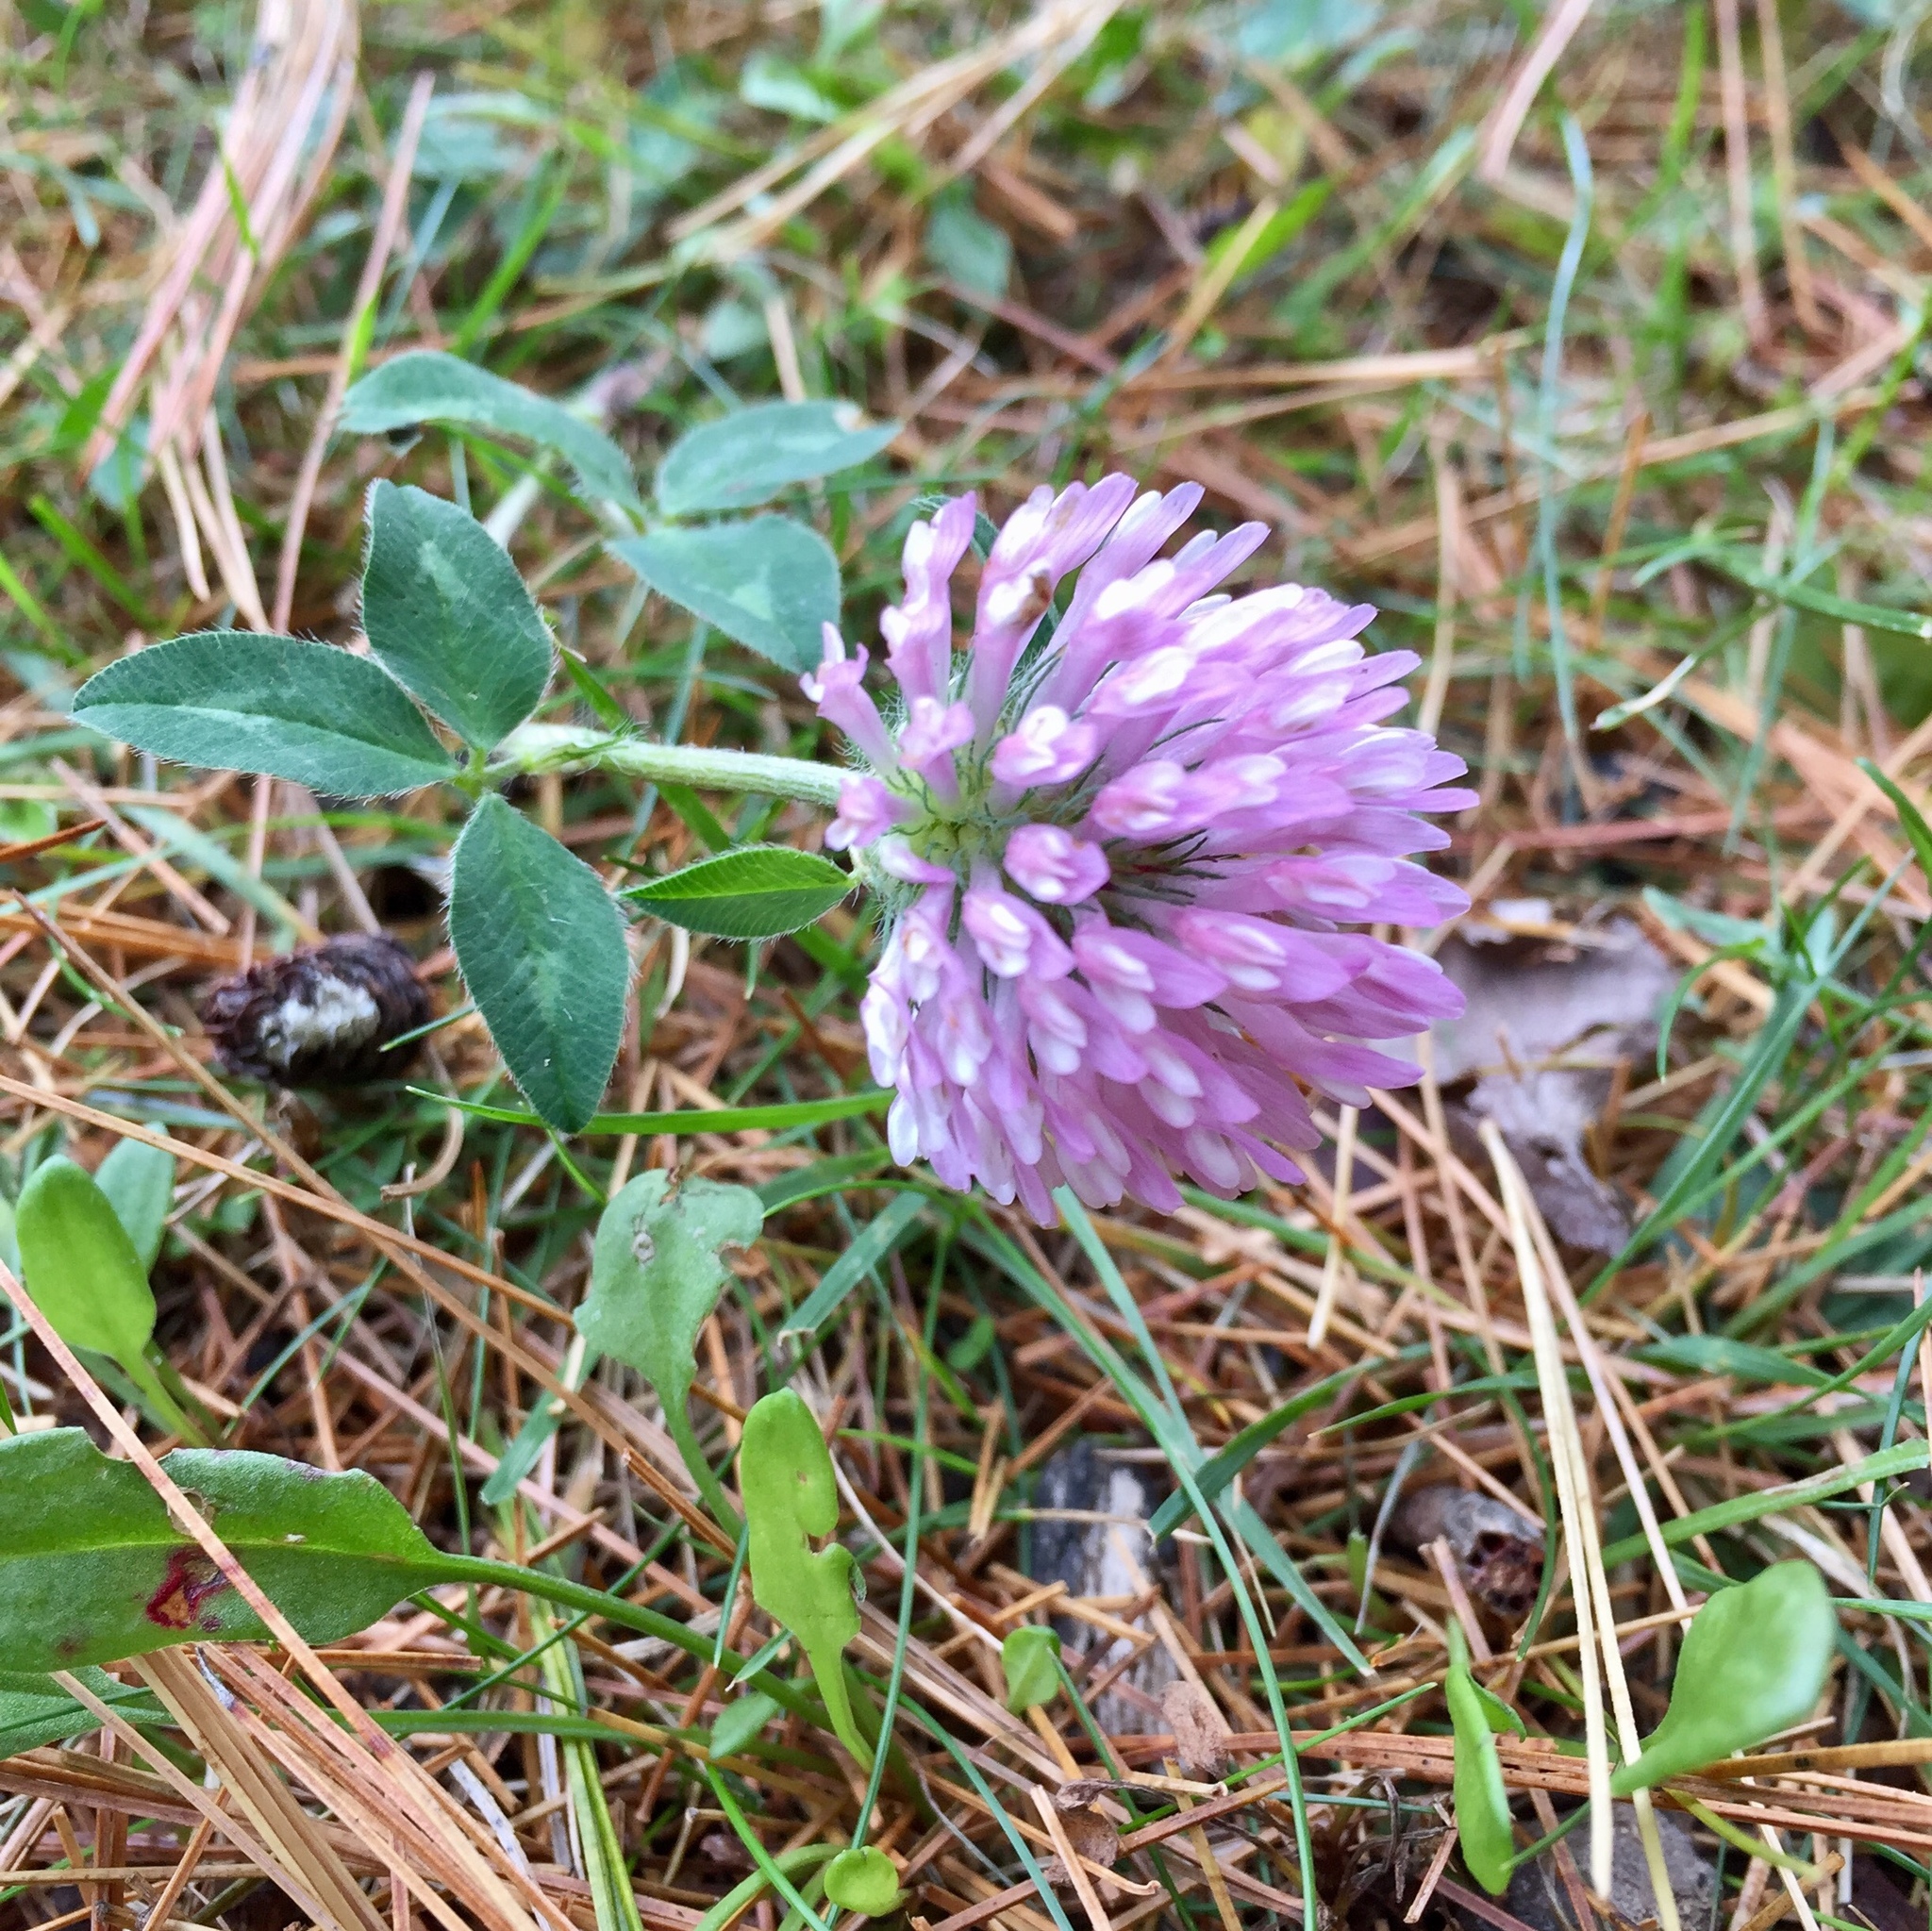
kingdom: Plantae
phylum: Tracheophyta
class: Magnoliopsida
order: Fabales
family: Fabaceae
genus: Trifolium
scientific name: Trifolium pratense
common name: Red clover
